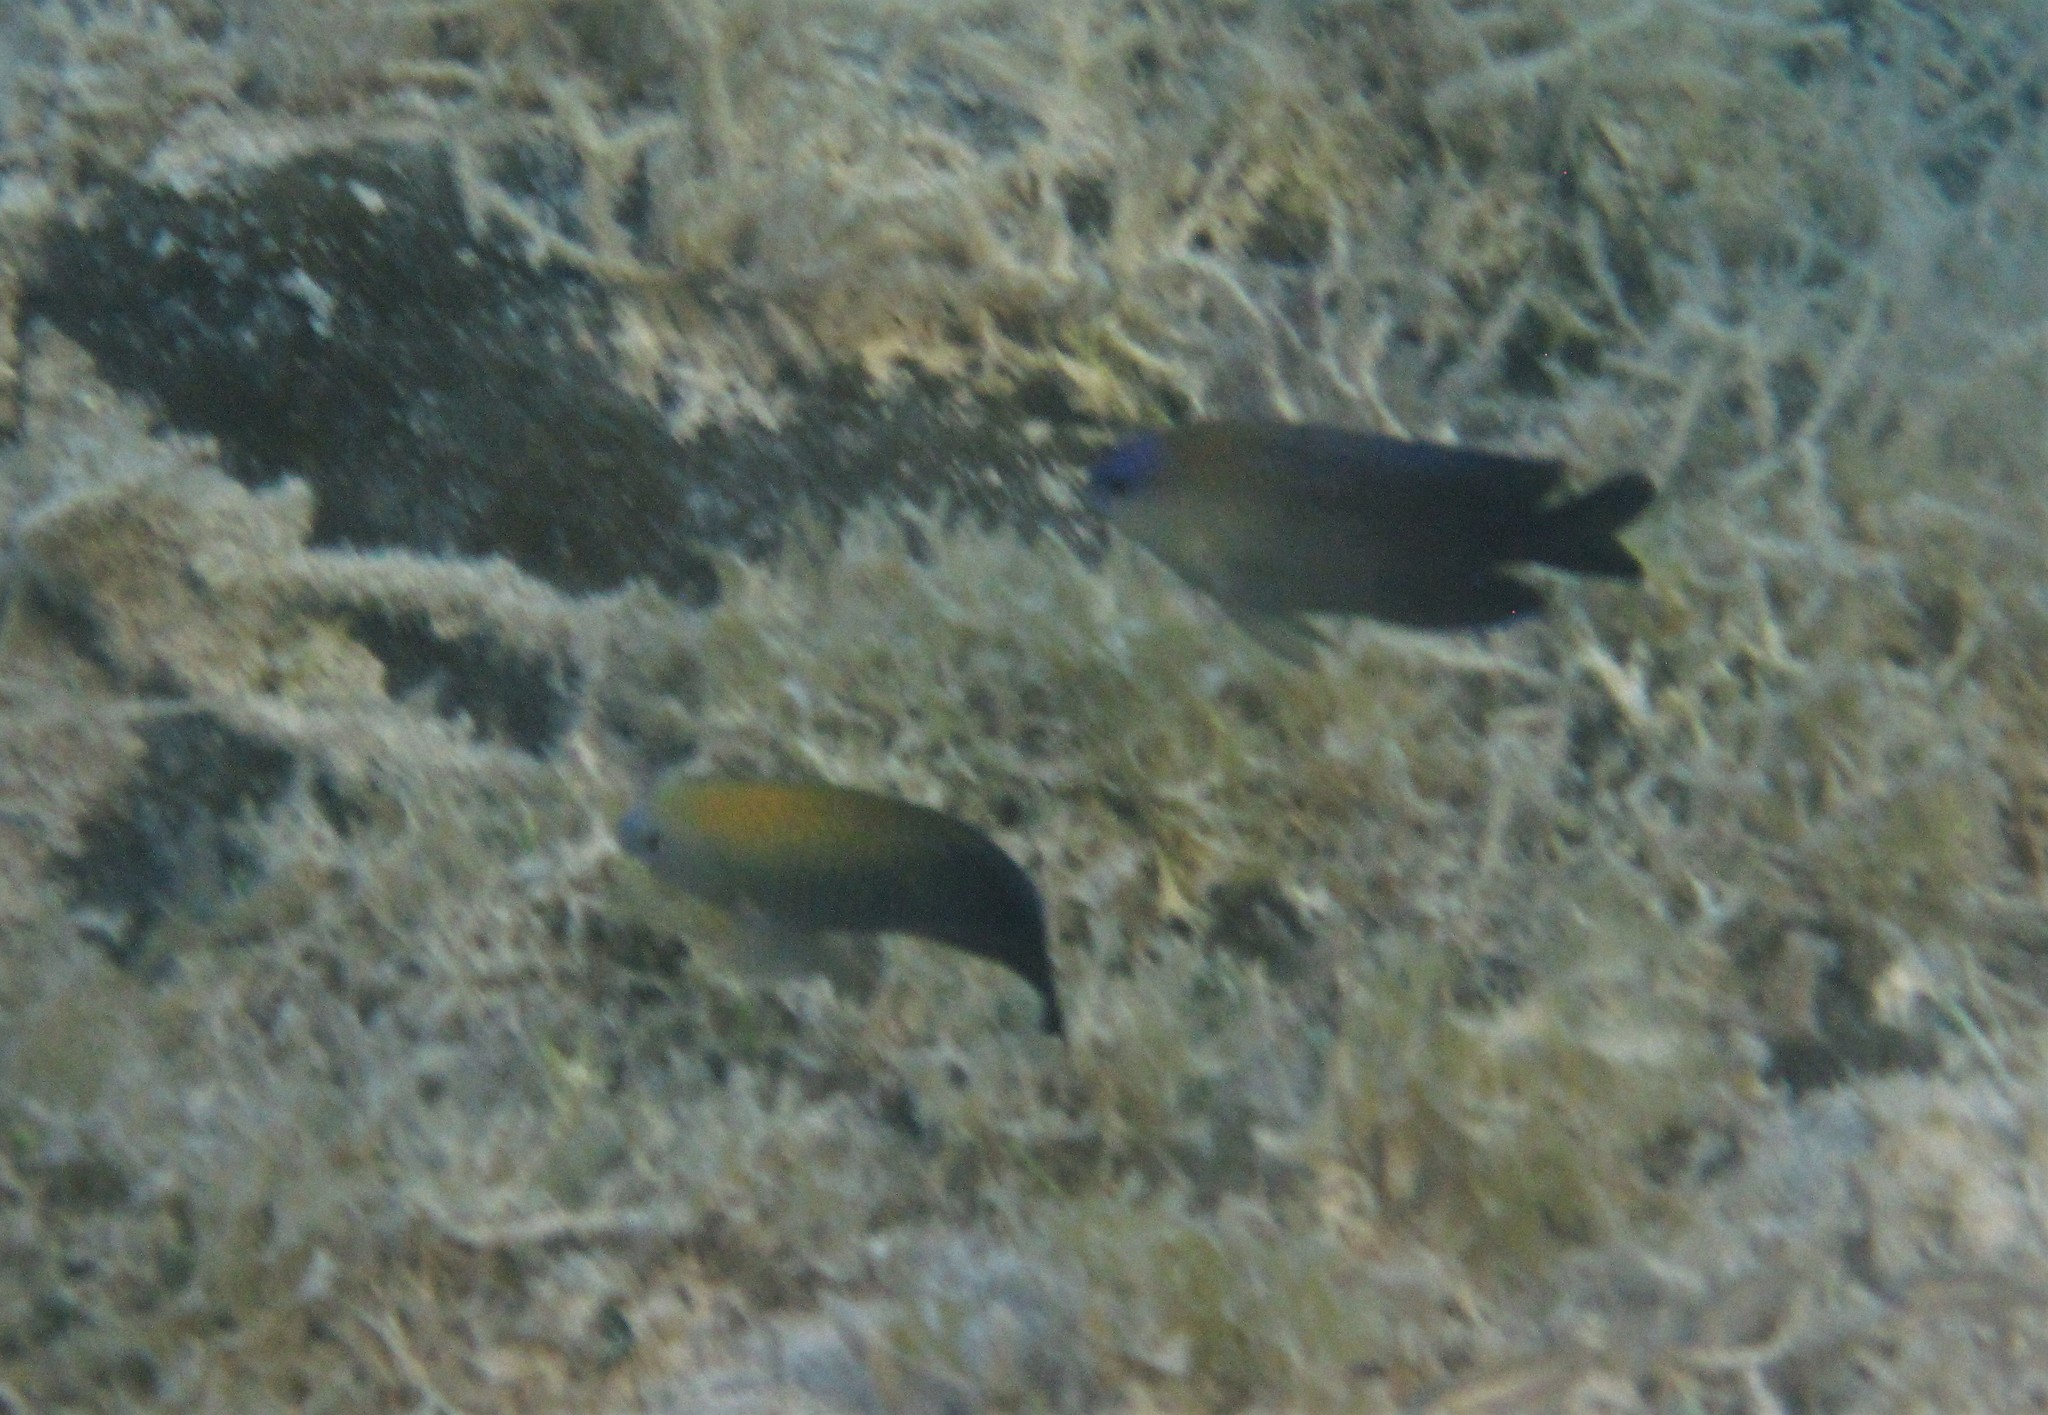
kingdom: Animalia
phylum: Chordata
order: Perciformes
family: Pomacentridae
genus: Stegastes
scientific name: Stegastes leucostictus
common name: Beaugregory
